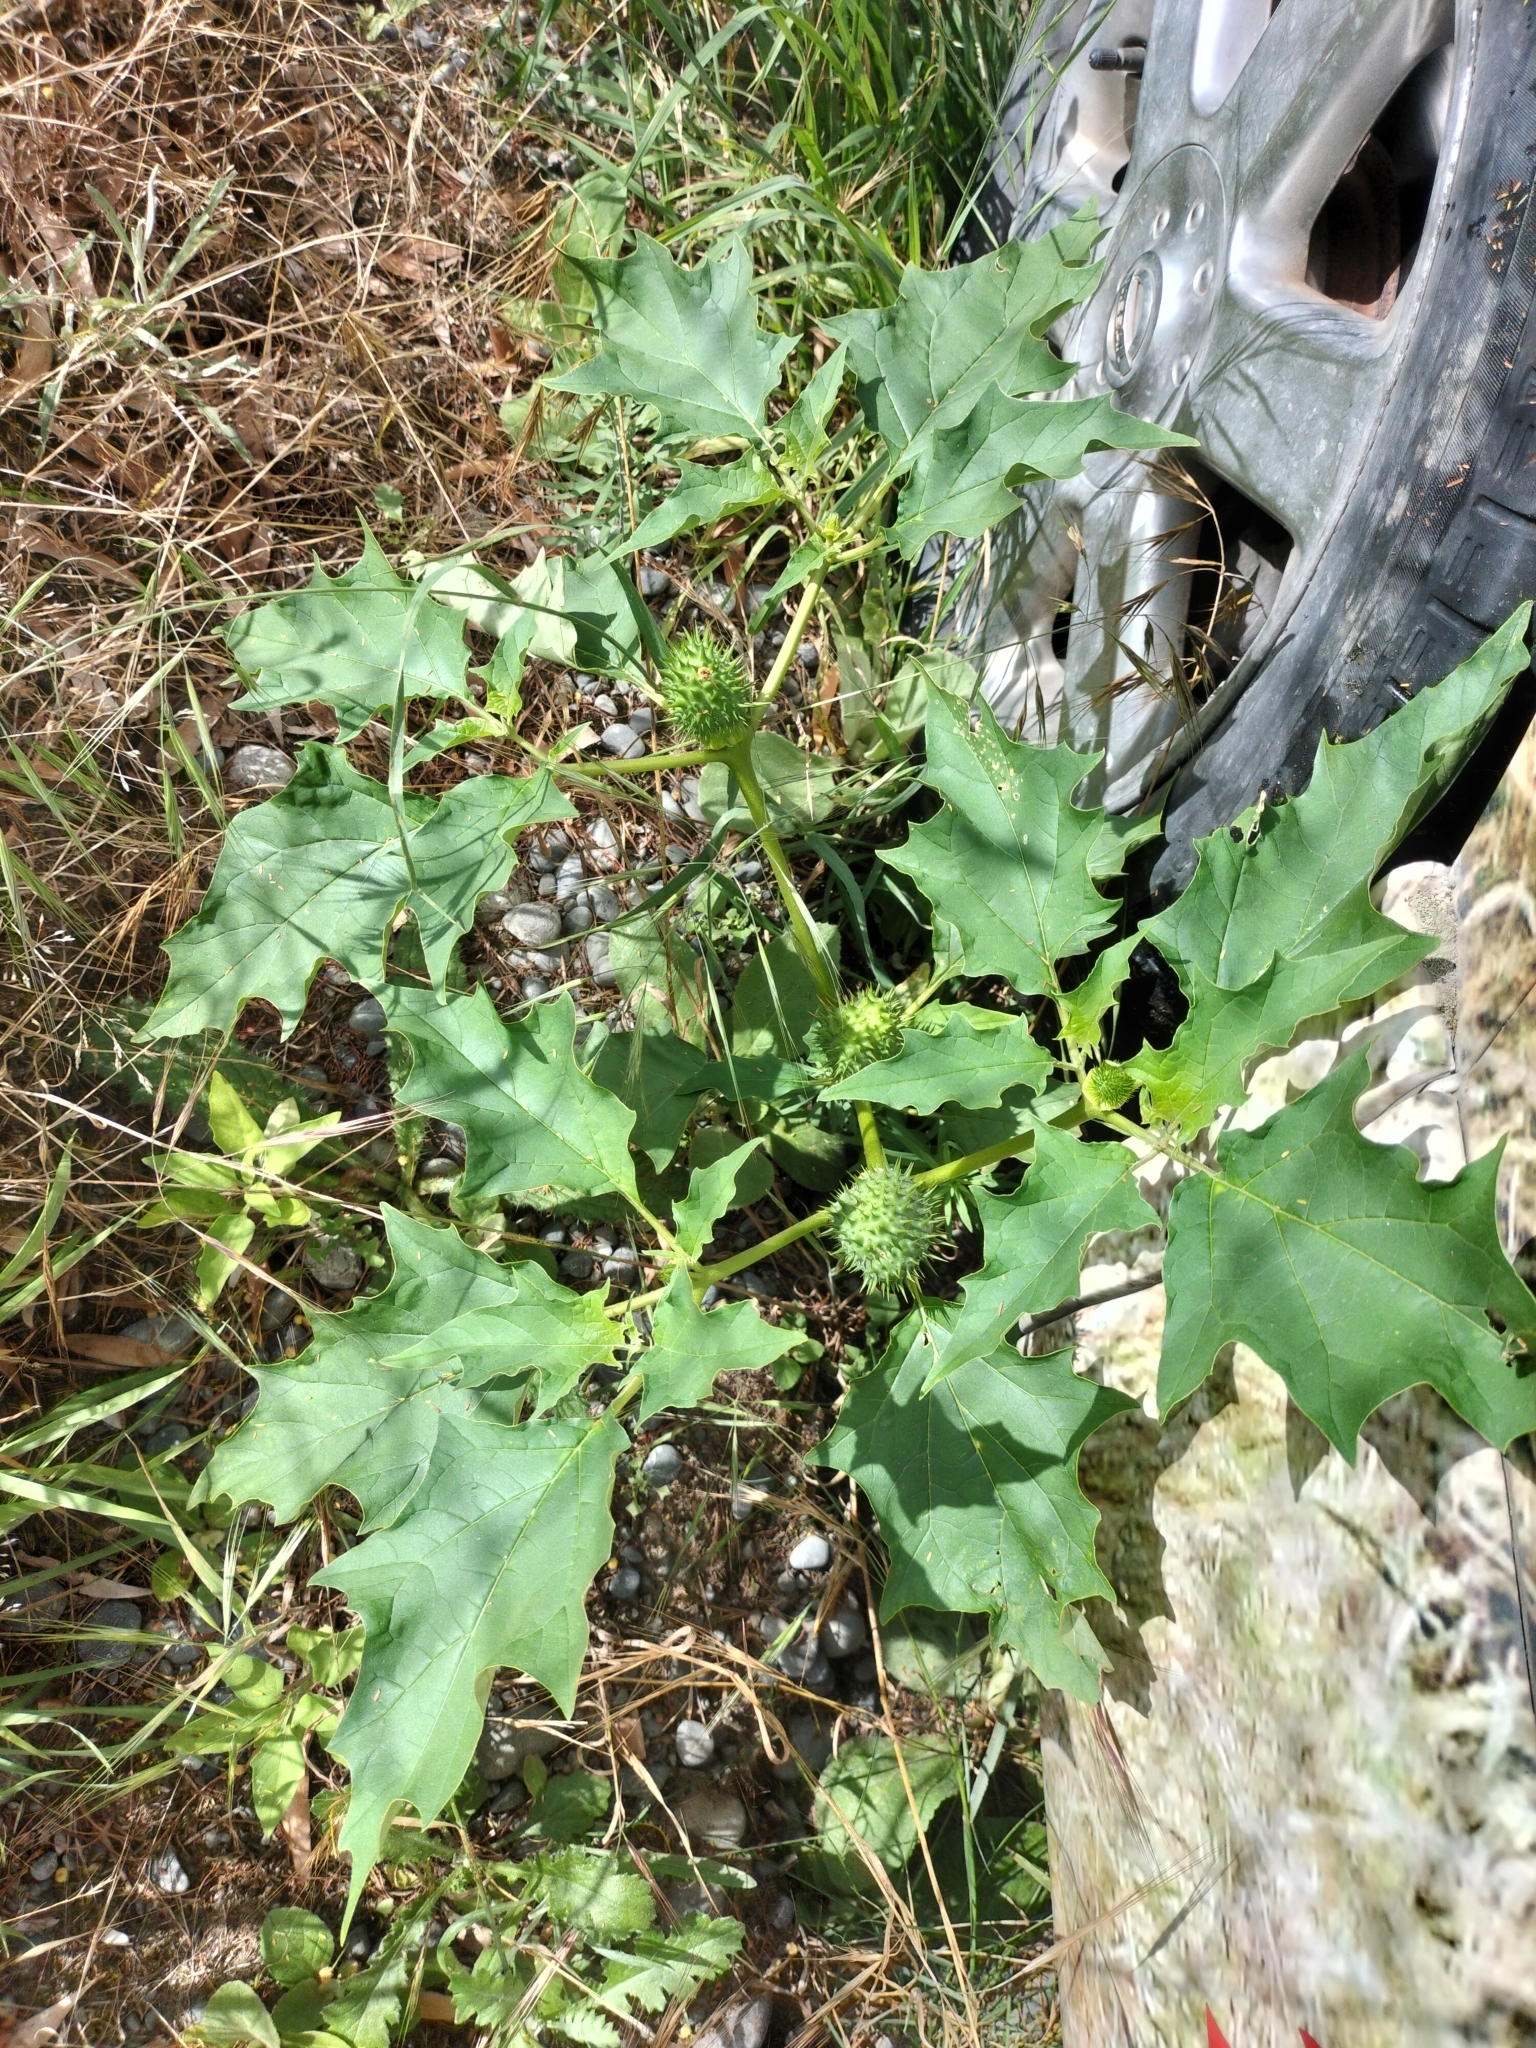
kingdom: Plantae
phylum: Tracheophyta
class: Magnoliopsida
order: Solanales
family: Solanaceae
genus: Datura
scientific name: Datura stramonium
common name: Thorn-apple
